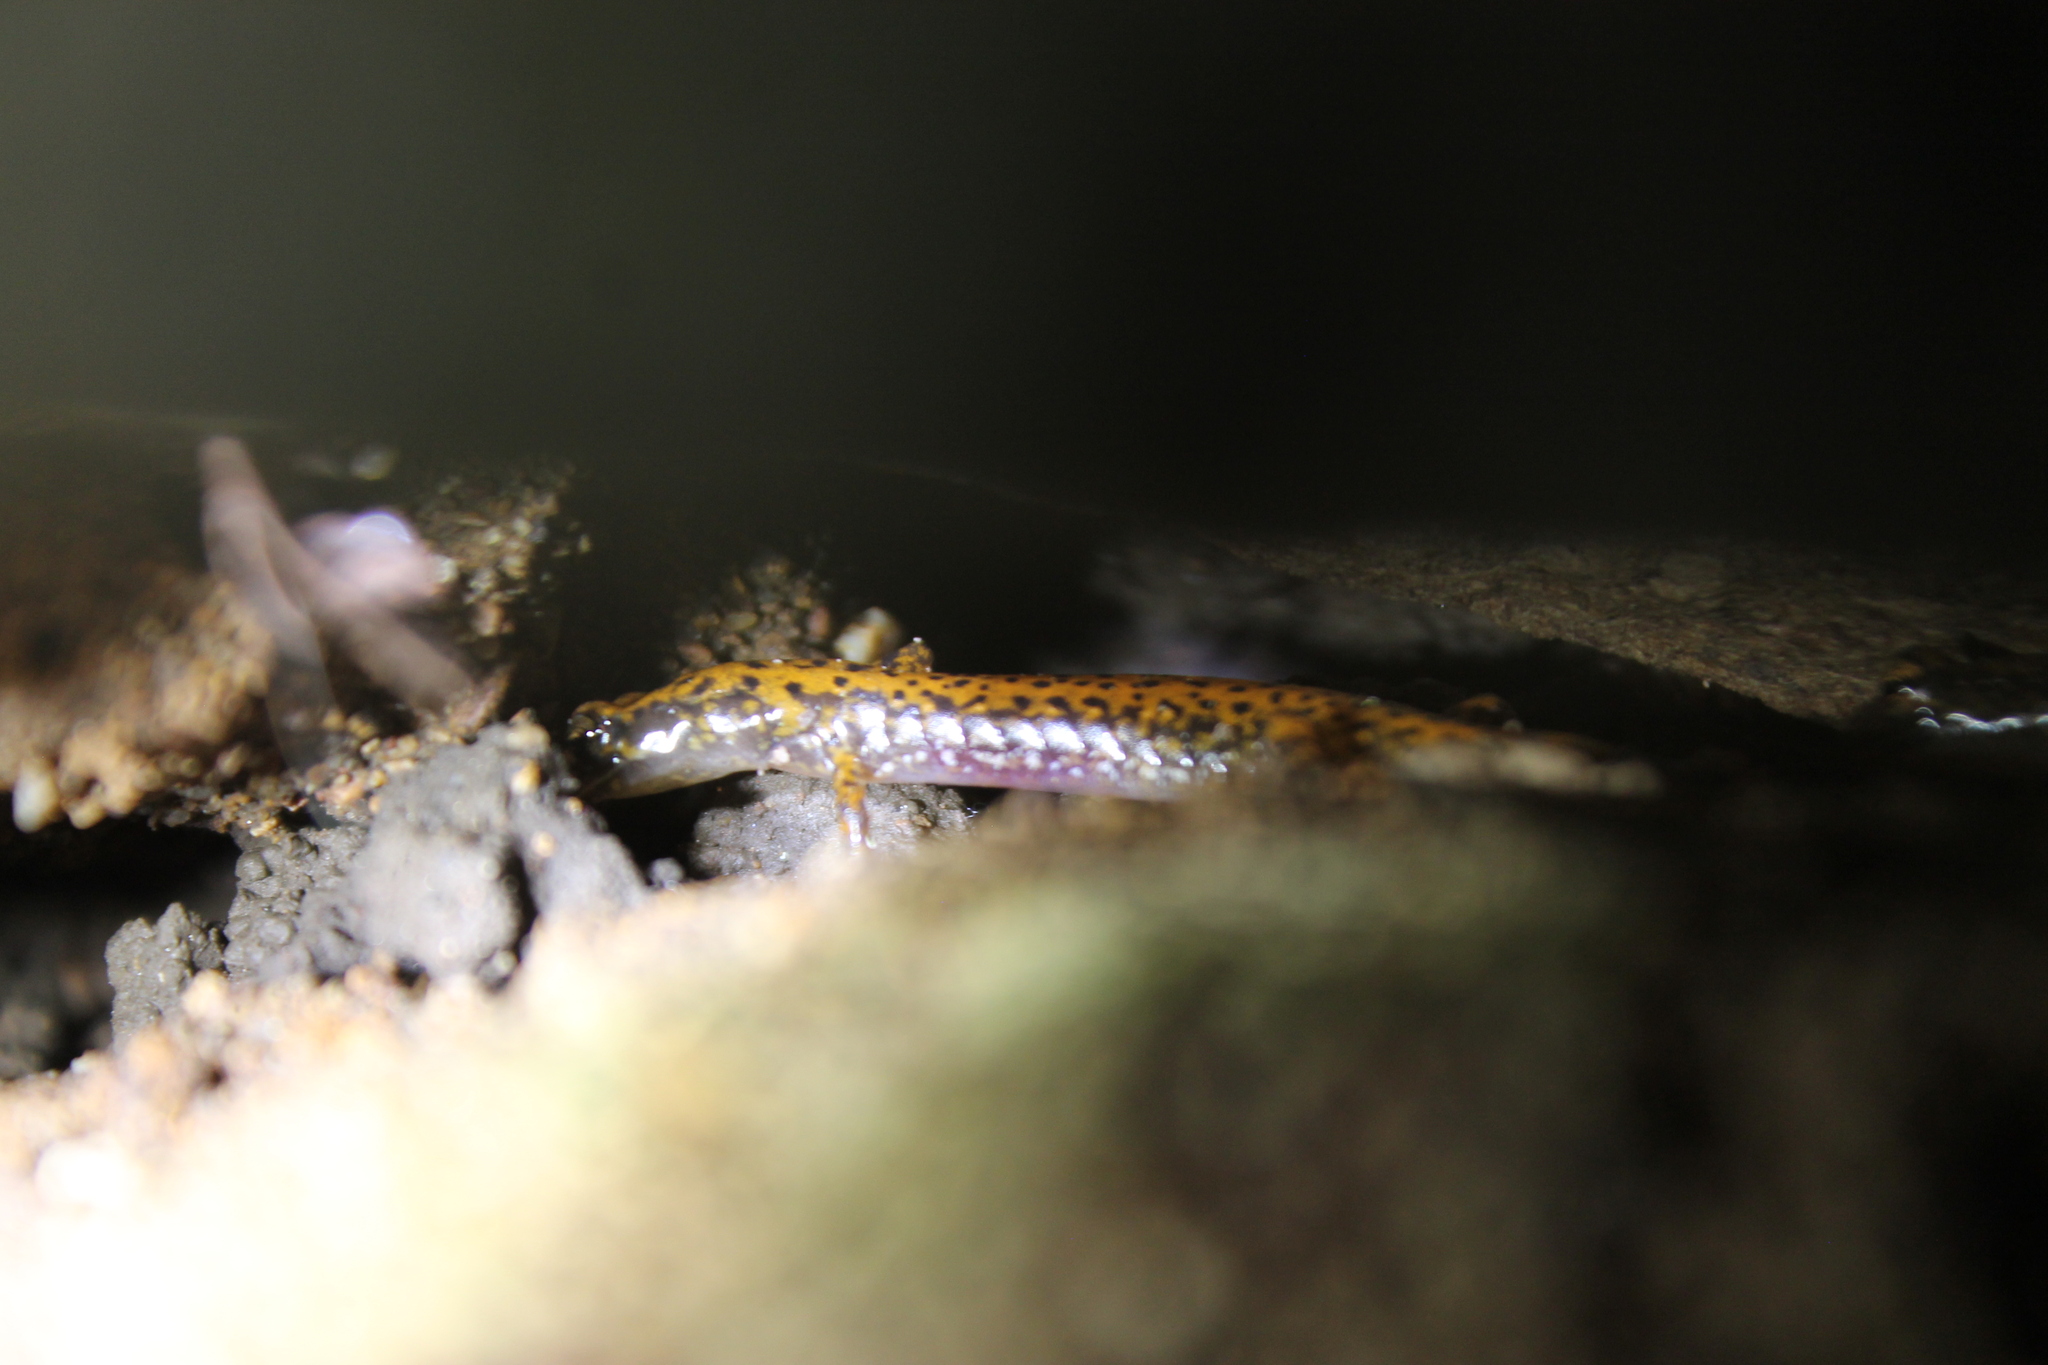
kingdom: Animalia
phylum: Chordata
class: Amphibia
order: Caudata
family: Plethodontidae
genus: Eurycea
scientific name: Eurycea lucifuga
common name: Cave salamander
